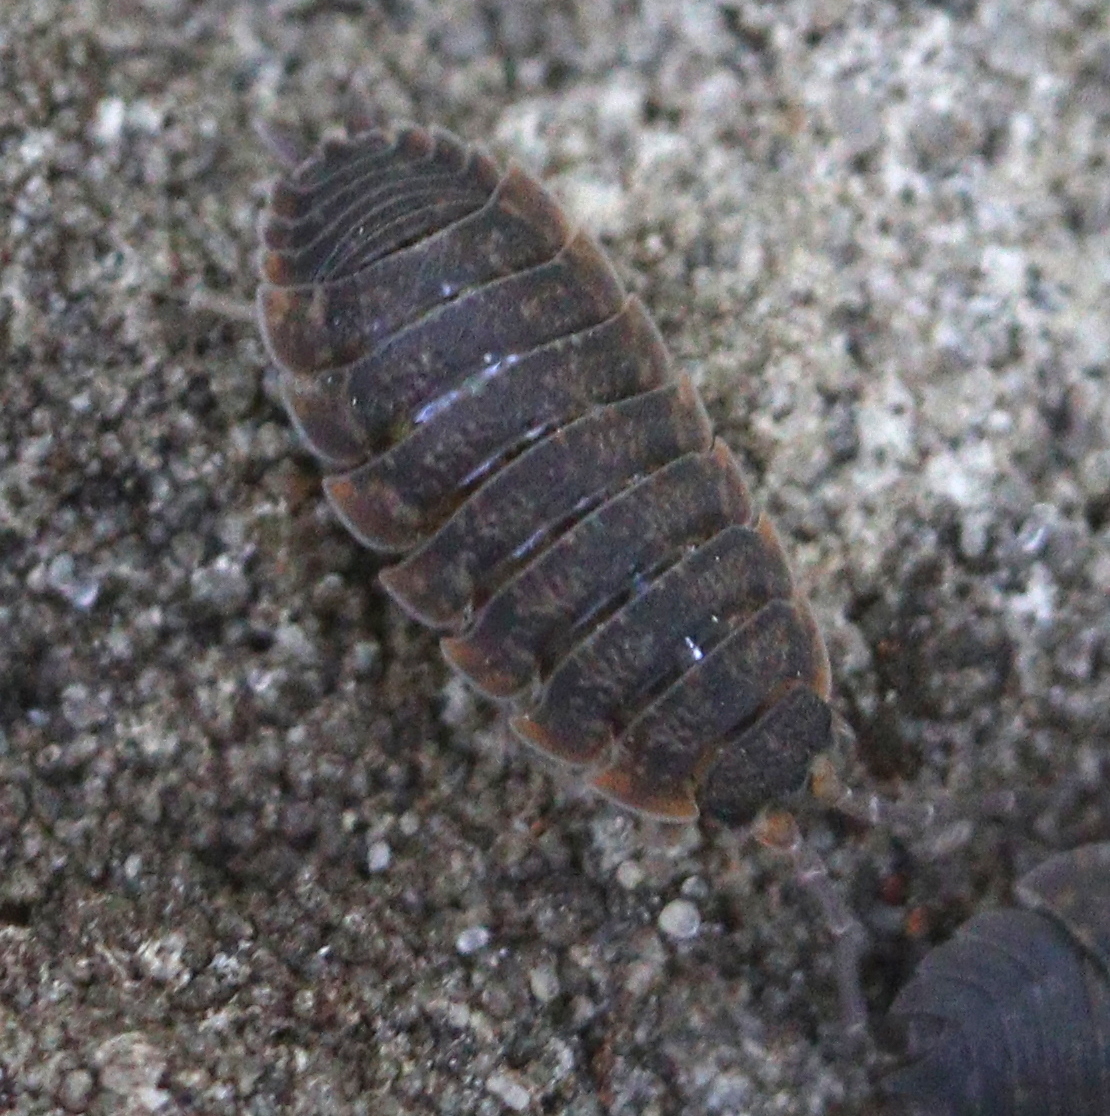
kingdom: Animalia
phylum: Arthropoda
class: Malacostraca
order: Isopoda
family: Porcellionidae
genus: Porcellio
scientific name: Porcellio scaber
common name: Common rough woodlouse
